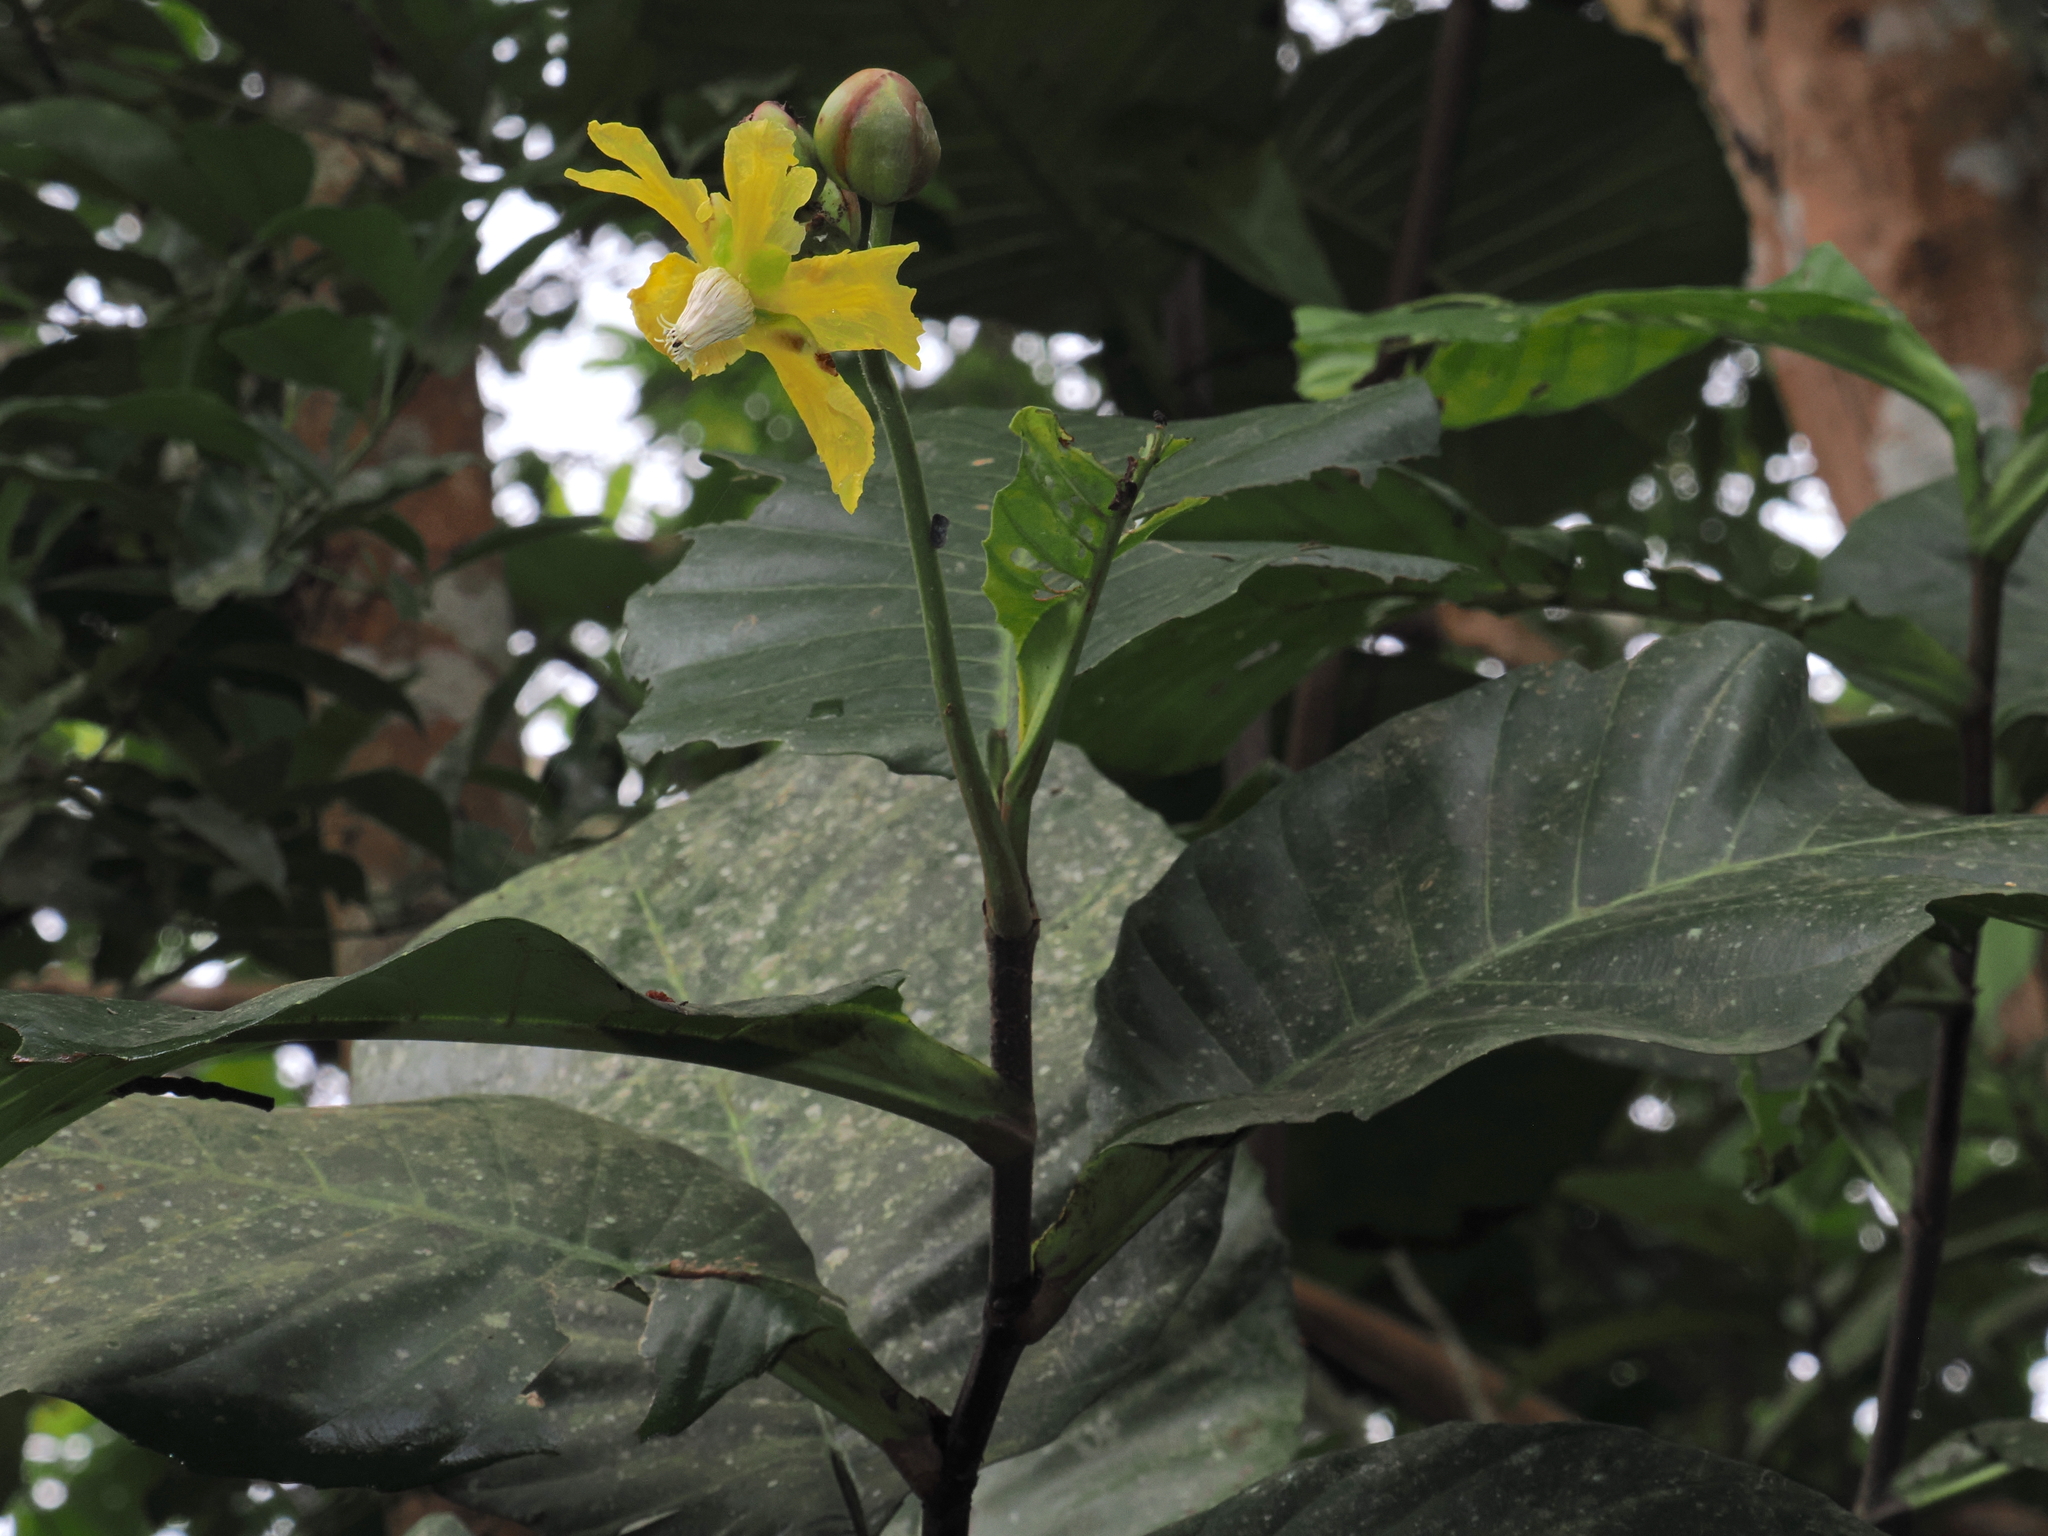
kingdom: Plantae
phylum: Tracheophyta
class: Magnoliopsida
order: Dilleniales
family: Dilleniaceae
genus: Dillenia
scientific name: Dillenia suffruticosa
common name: Shrubby dillenia
